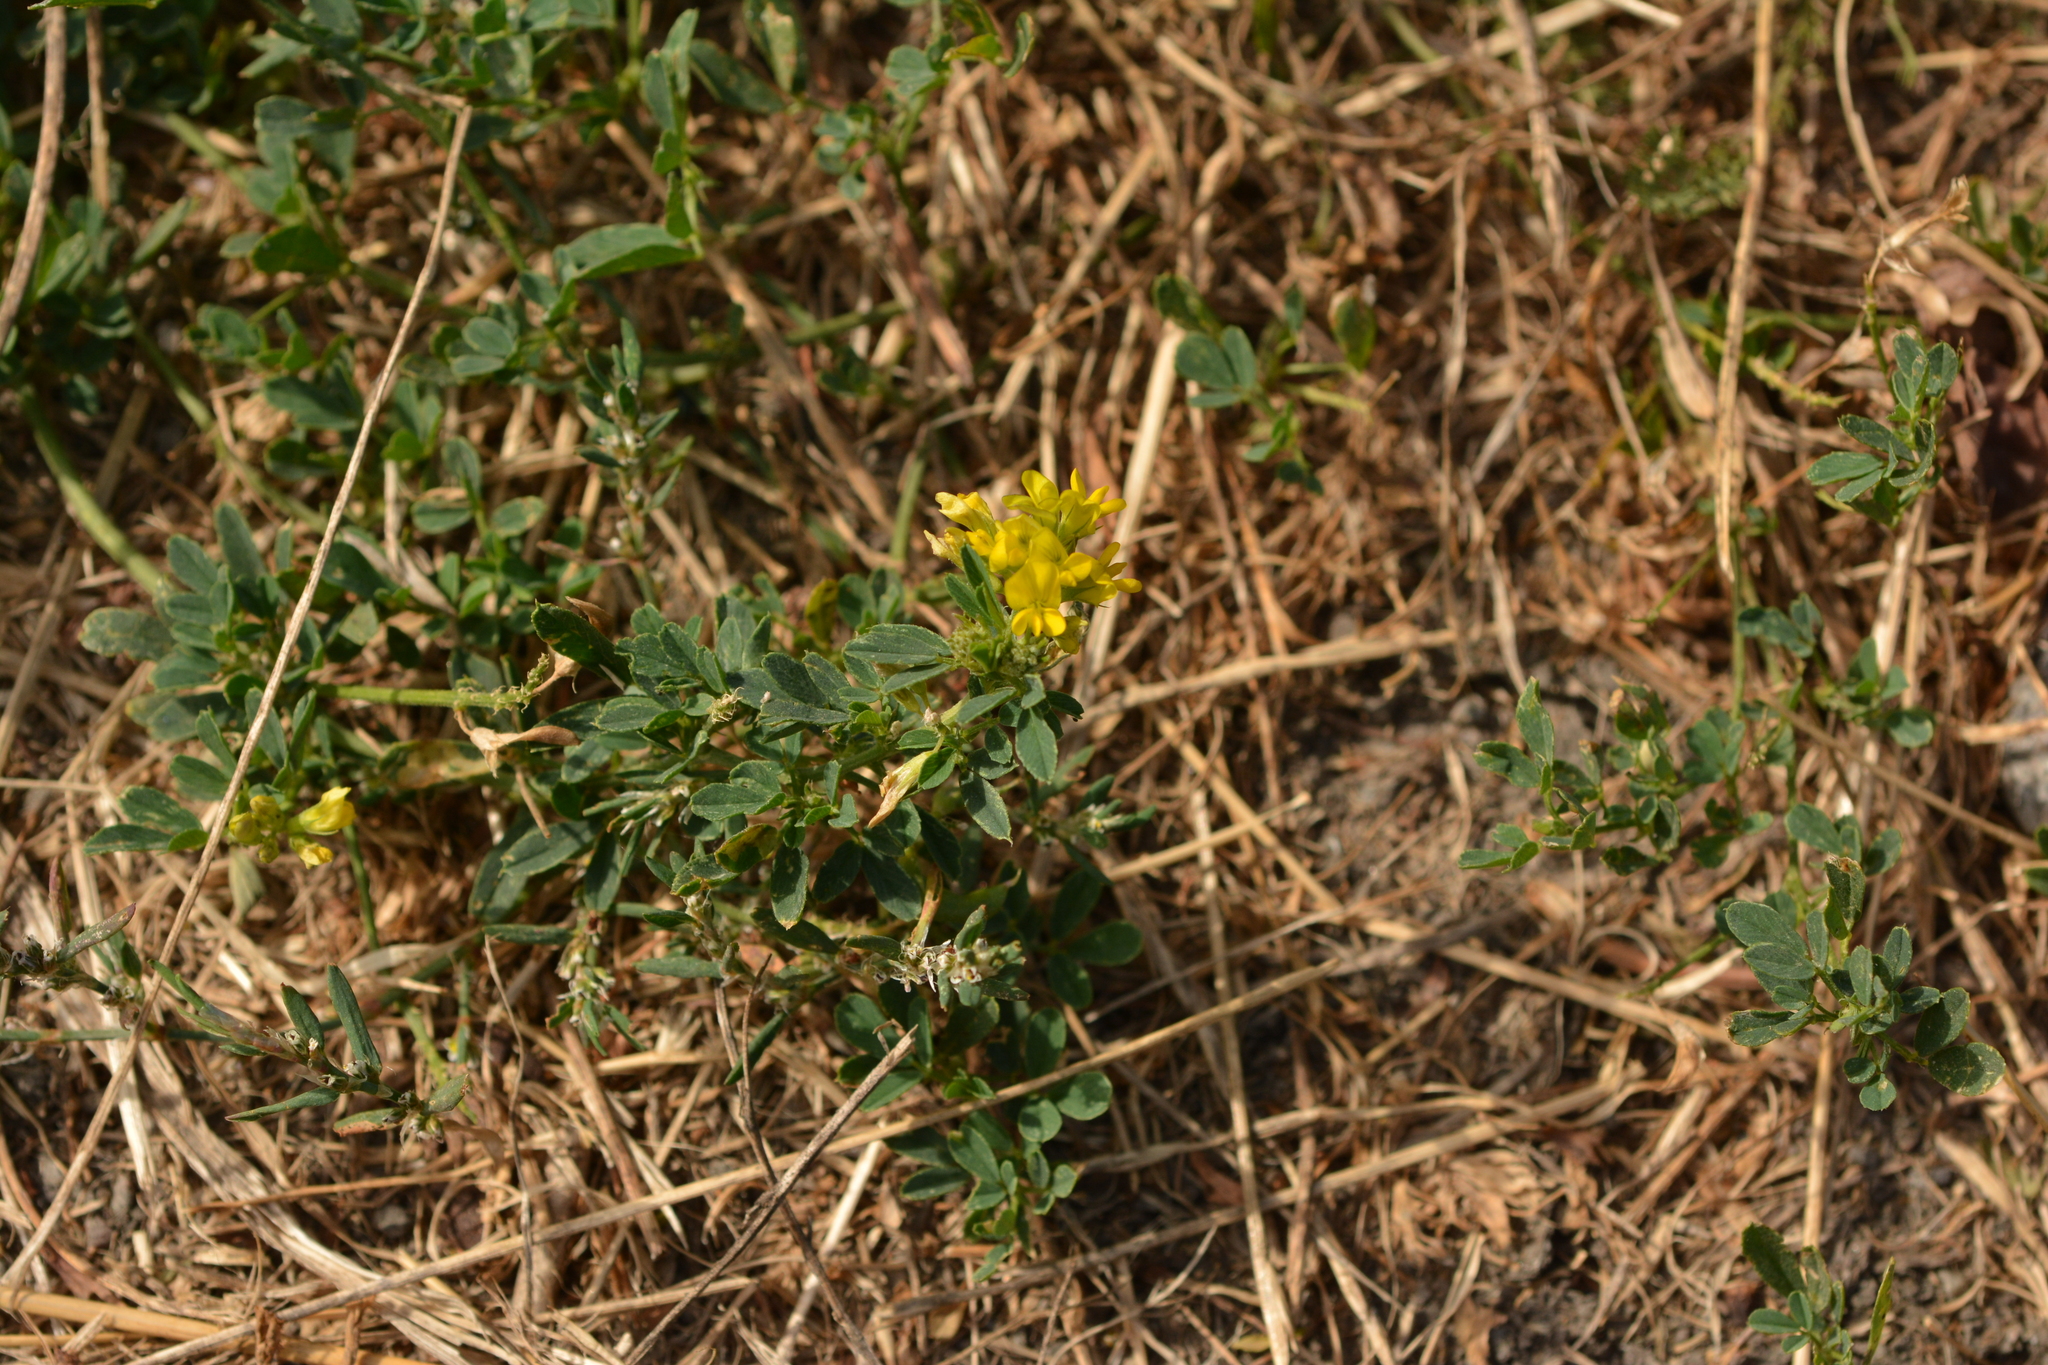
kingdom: Plantae
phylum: Tracheophyta
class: Magnoliopsida
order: Fabales
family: Fabaceae
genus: Medicago
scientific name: Medicago falcata
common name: Sickle medick
